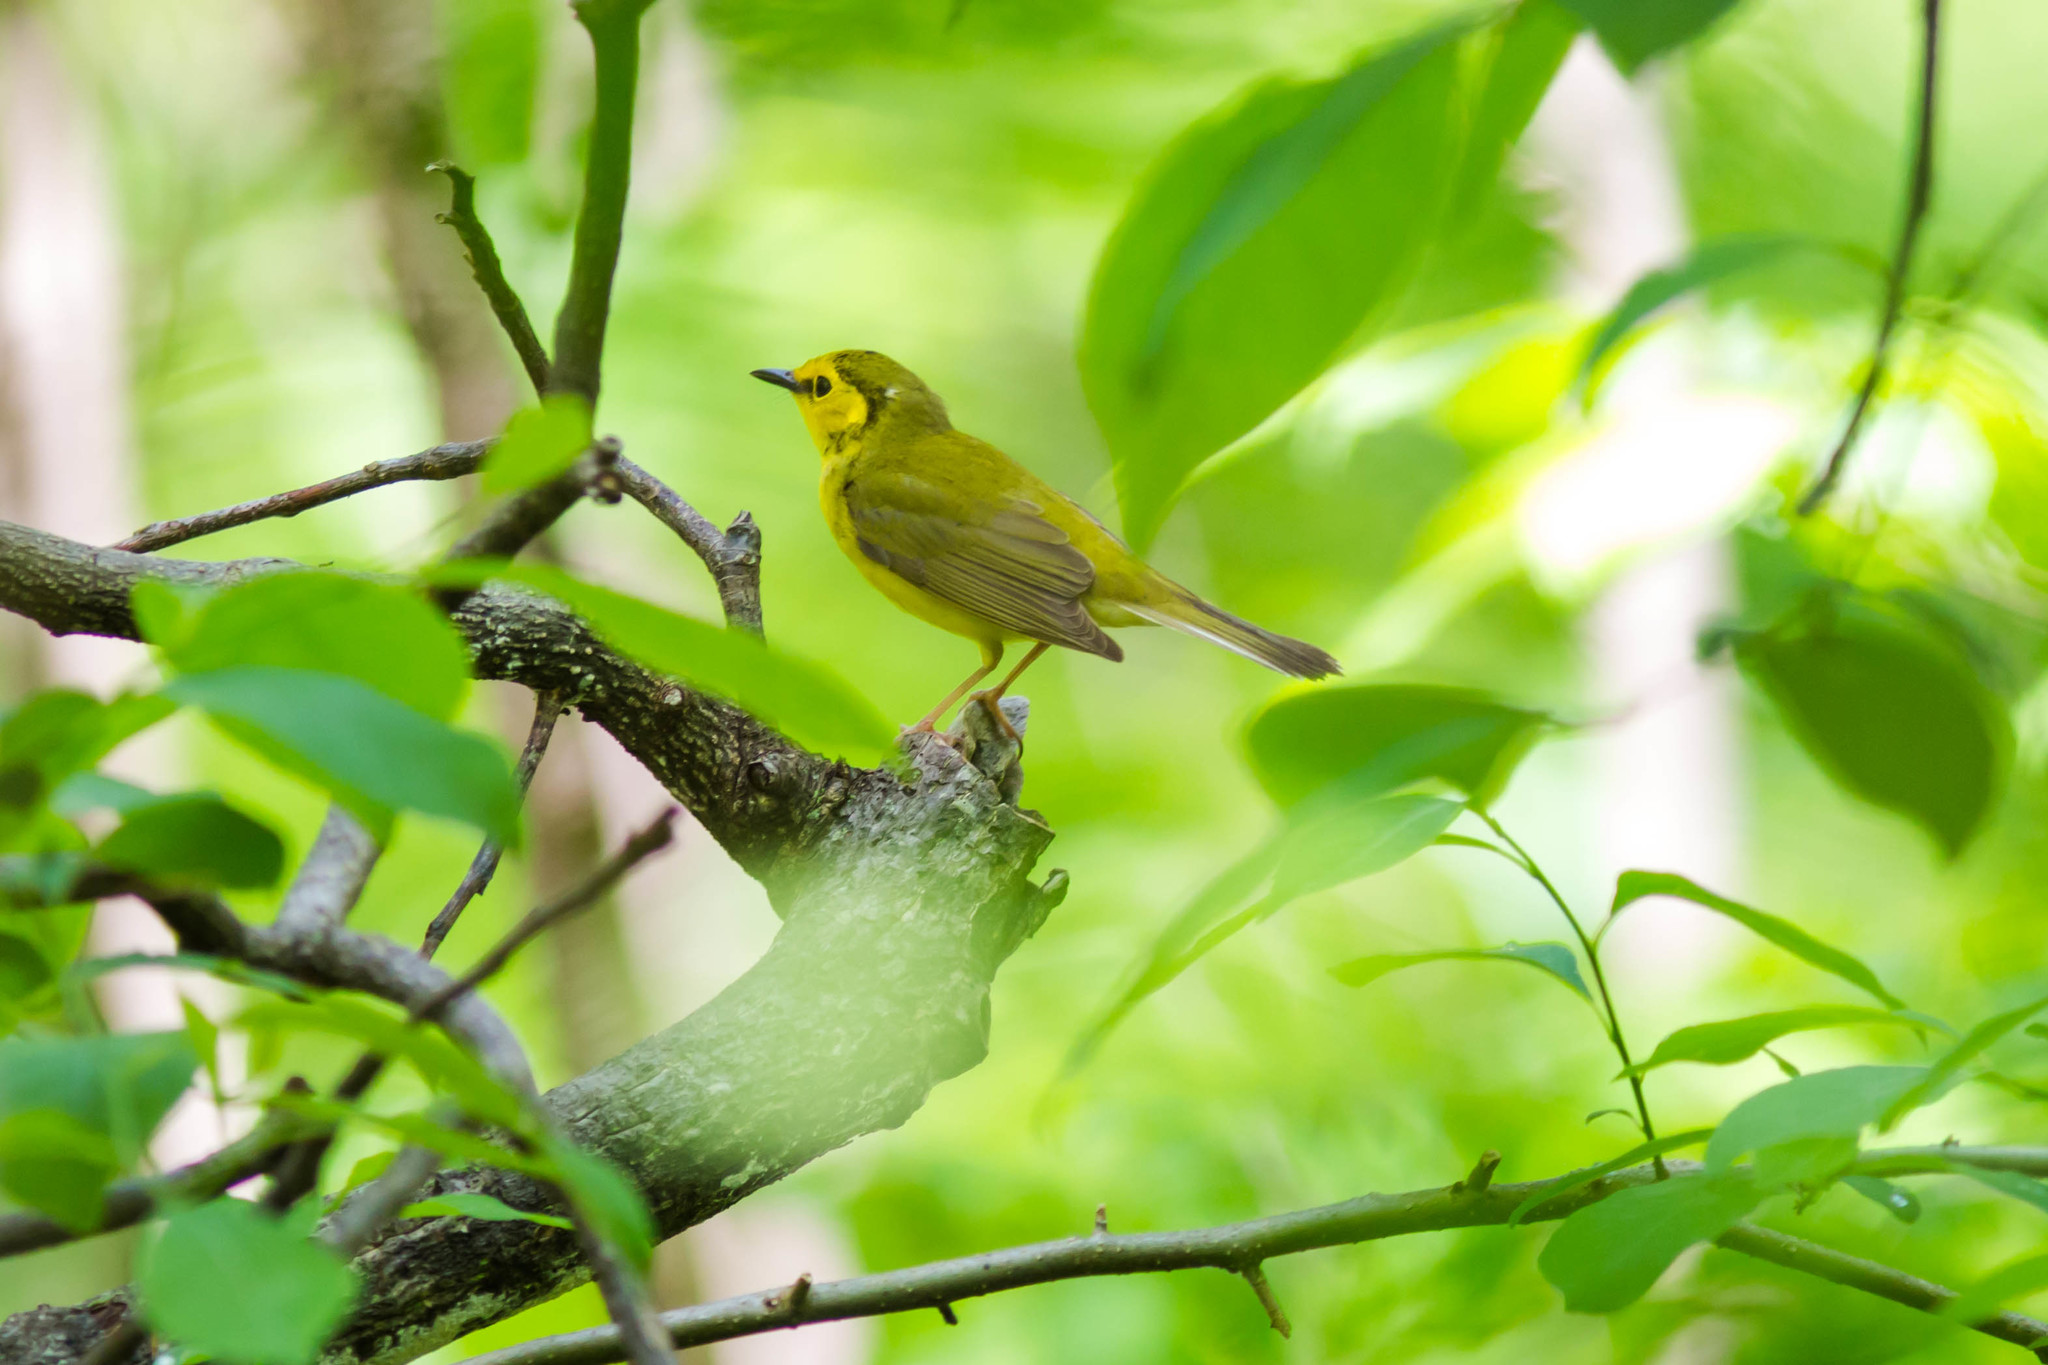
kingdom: Animalia
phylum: Chordata
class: Aves
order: Passeriformes
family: Parulidae
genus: Setophaga
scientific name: Setophaga citrina
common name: Hooded warbler
